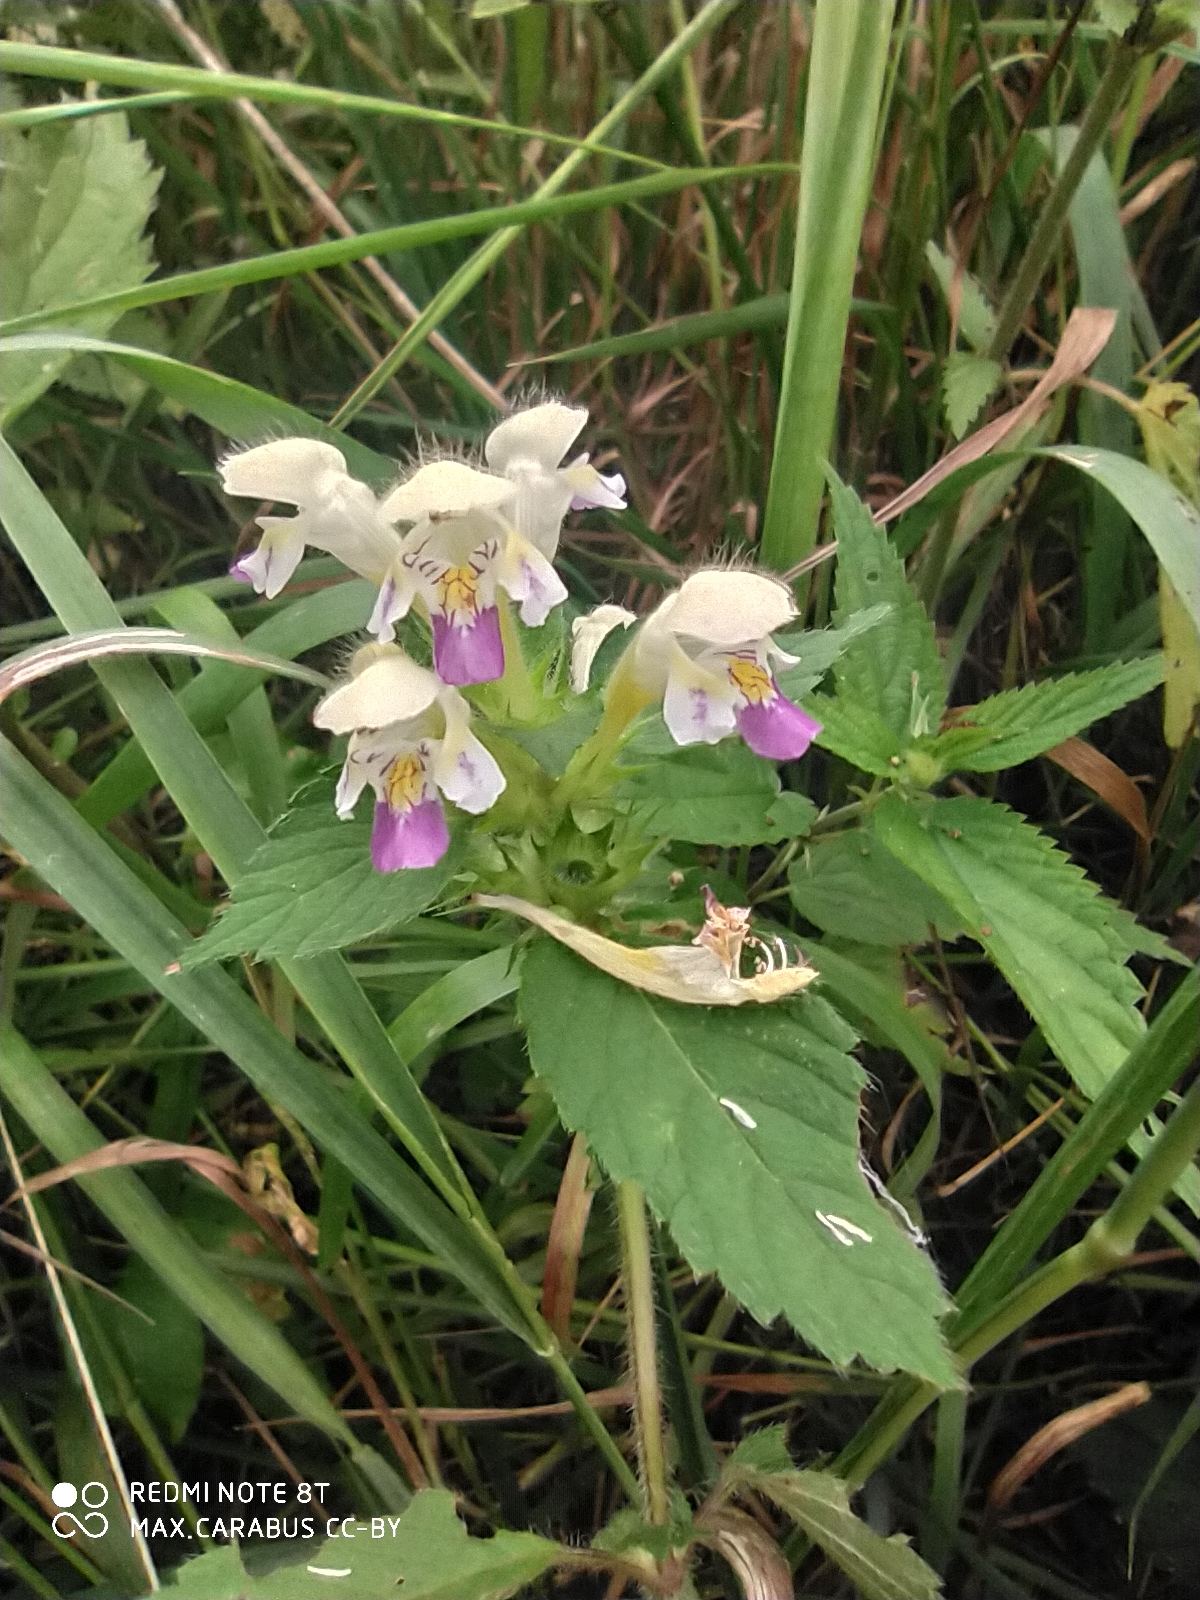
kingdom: Plantae
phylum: Tracheophyta
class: Magnoliopsida
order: Lamiales
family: Lamiaceae
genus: Galeopsis
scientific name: Galeopsis speciosa
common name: Large-flowered hemp-nettle
